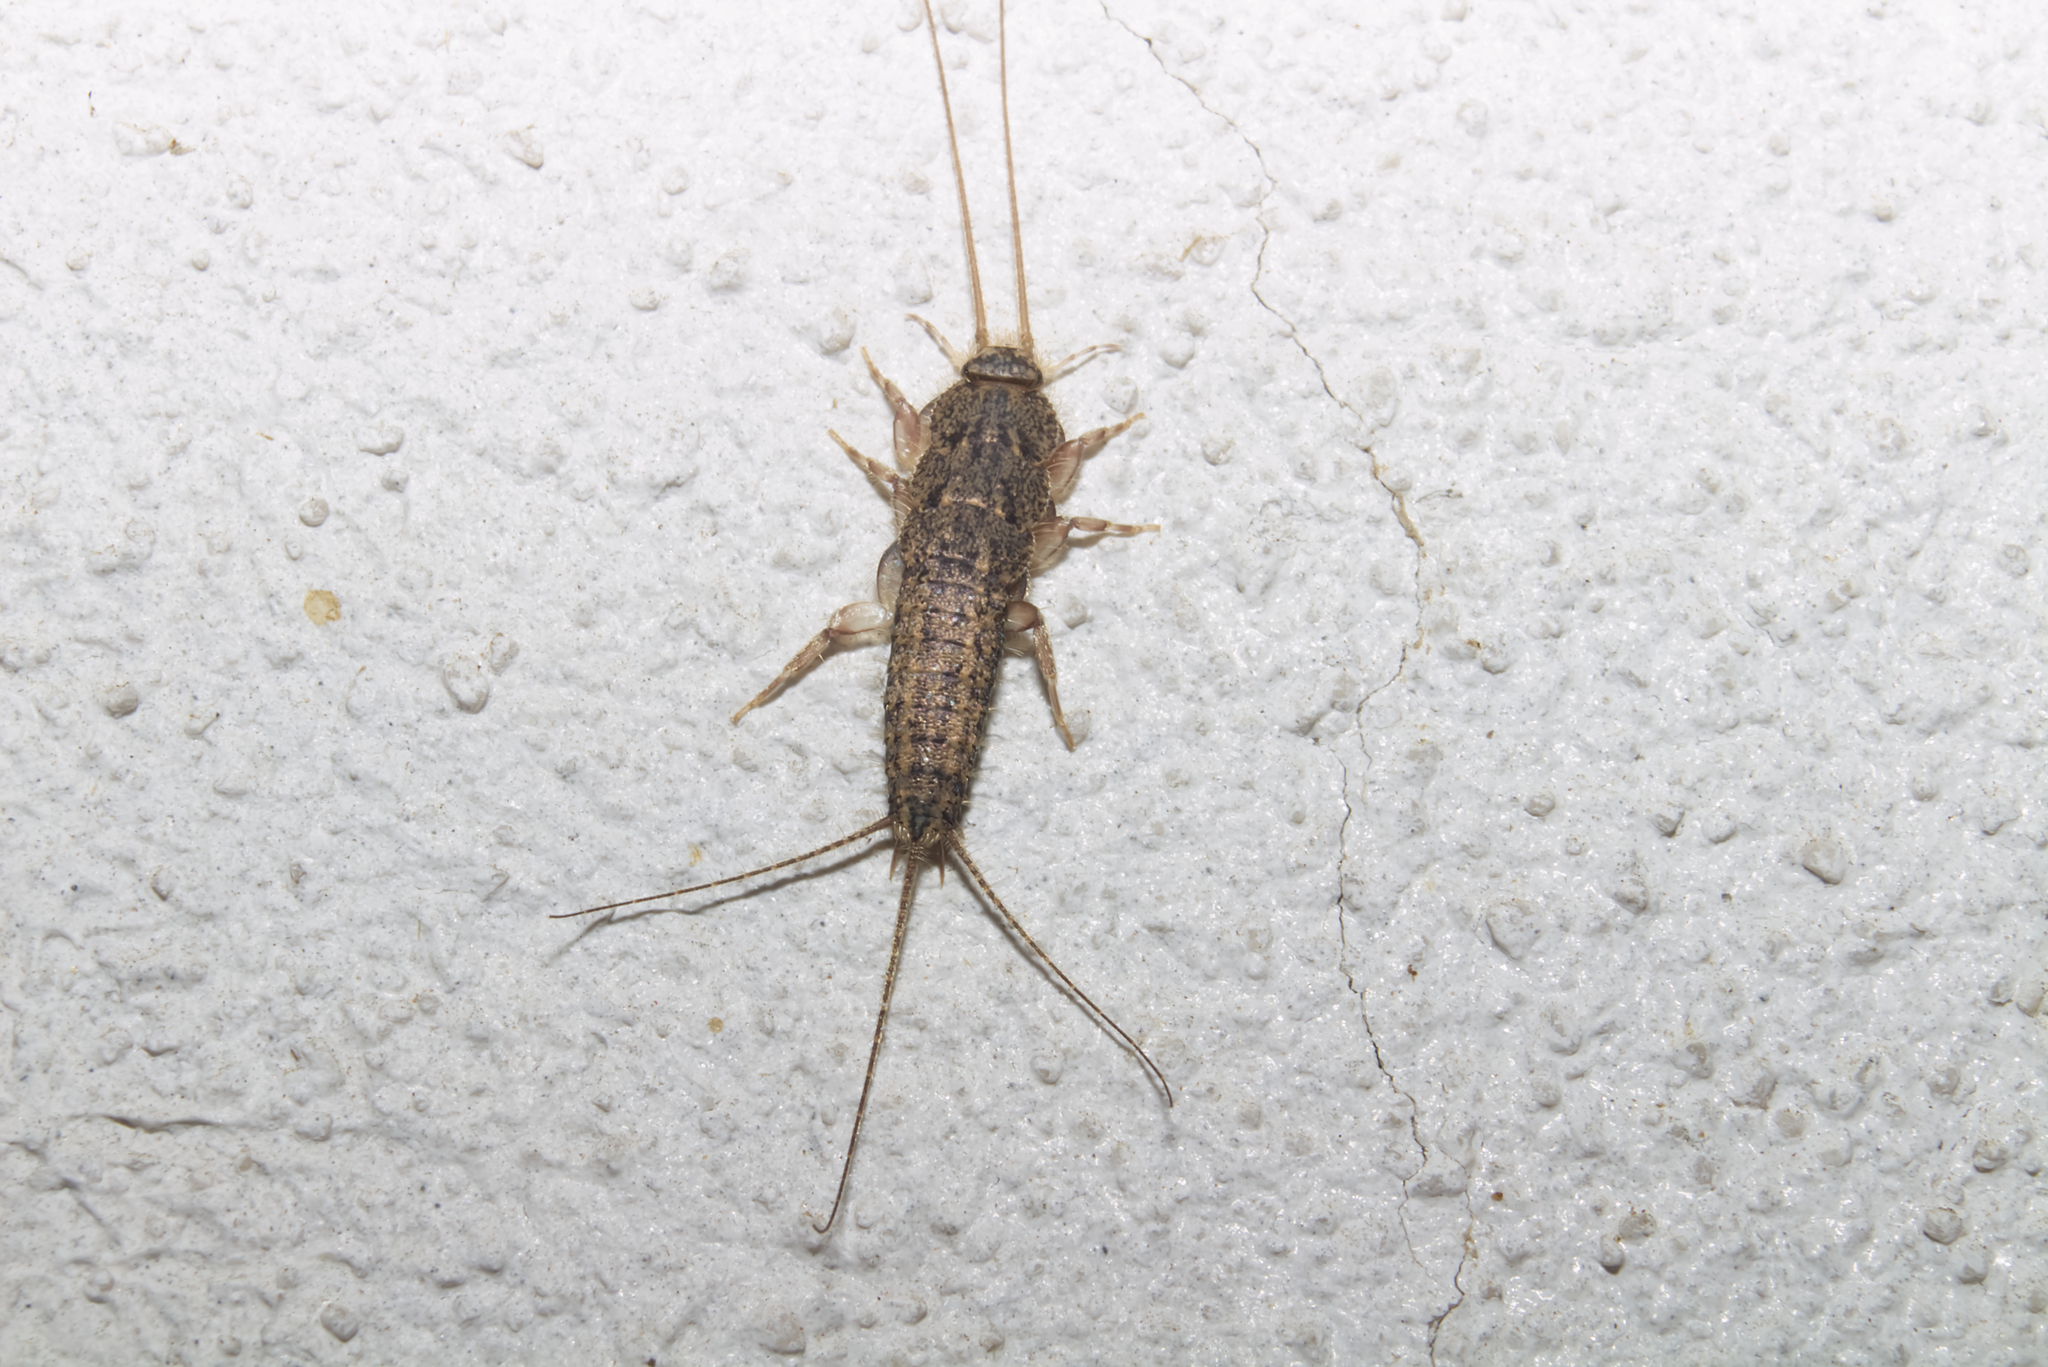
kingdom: Animalia
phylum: Arthropoda
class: Insecta
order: Zygentoma
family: Lepismatidae
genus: Ctenolepisma
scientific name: Ctenolepisma lineata
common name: Four-lined silverfish
